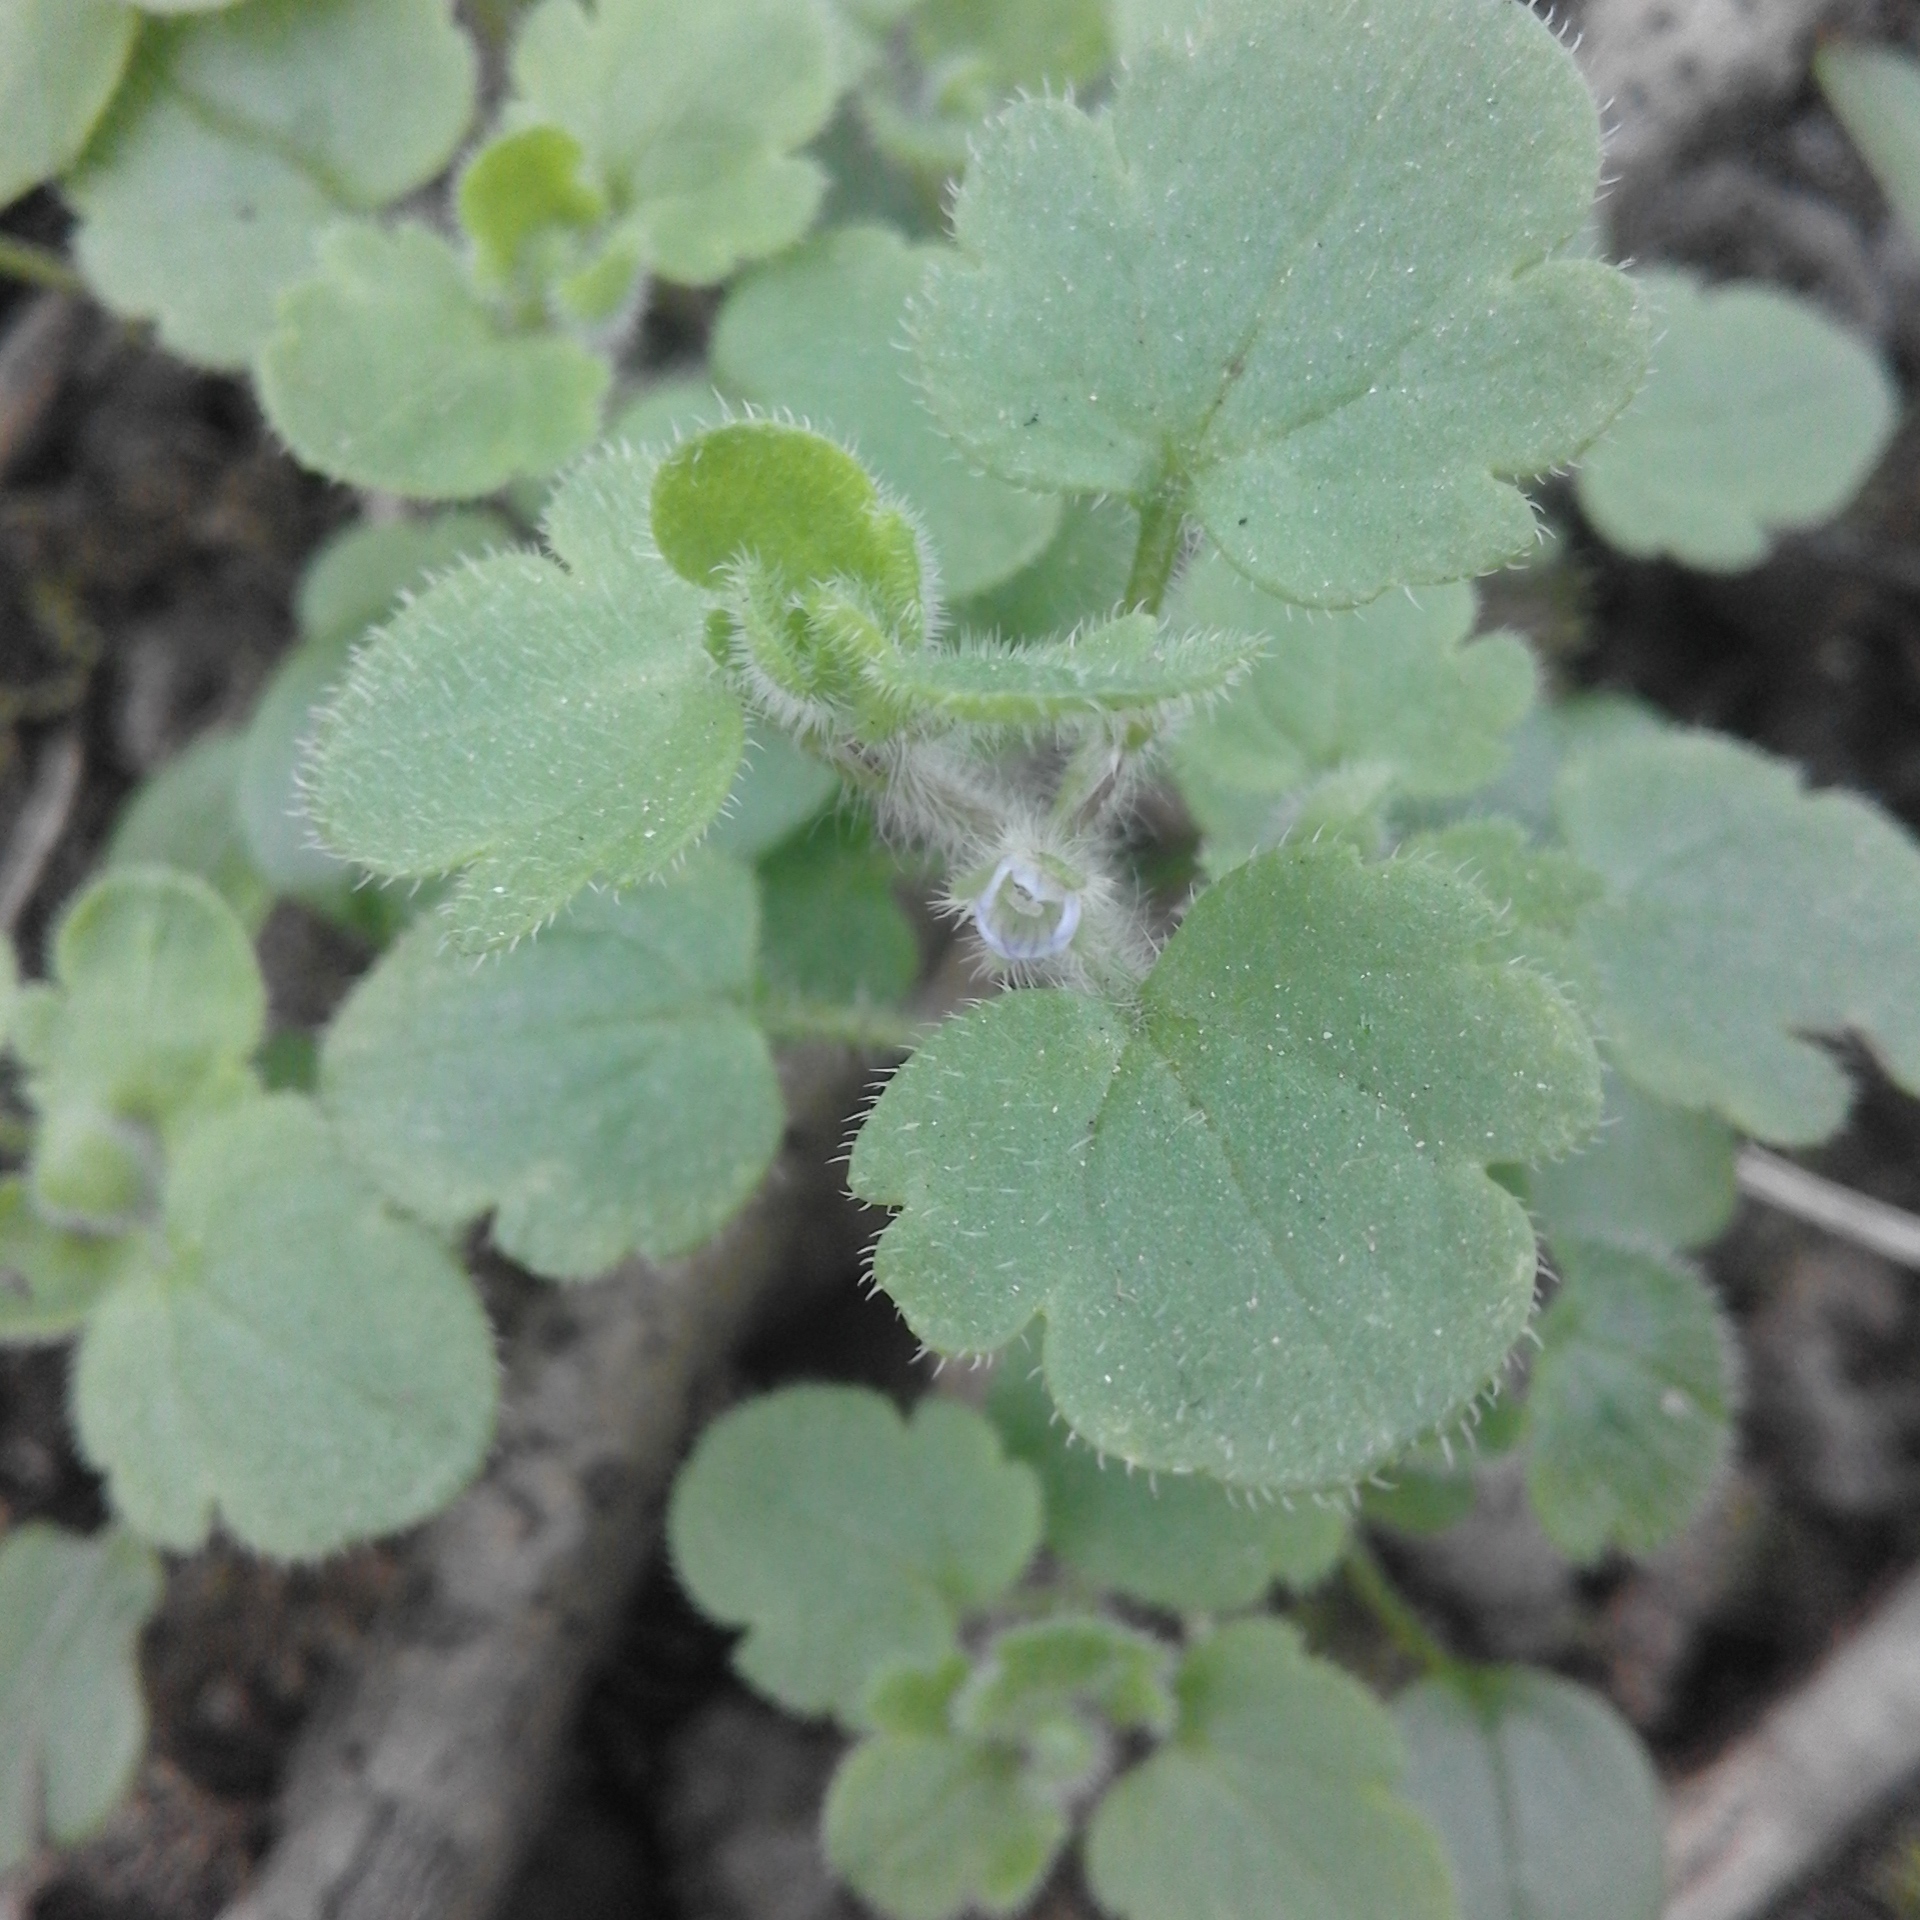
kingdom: Plantae
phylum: Tracheophyta
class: Magnoliopsida
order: Lamiales
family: Plantaginaceae
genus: Veronica
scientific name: Veronica hederifolia
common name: Ivy-leaved speedwell
